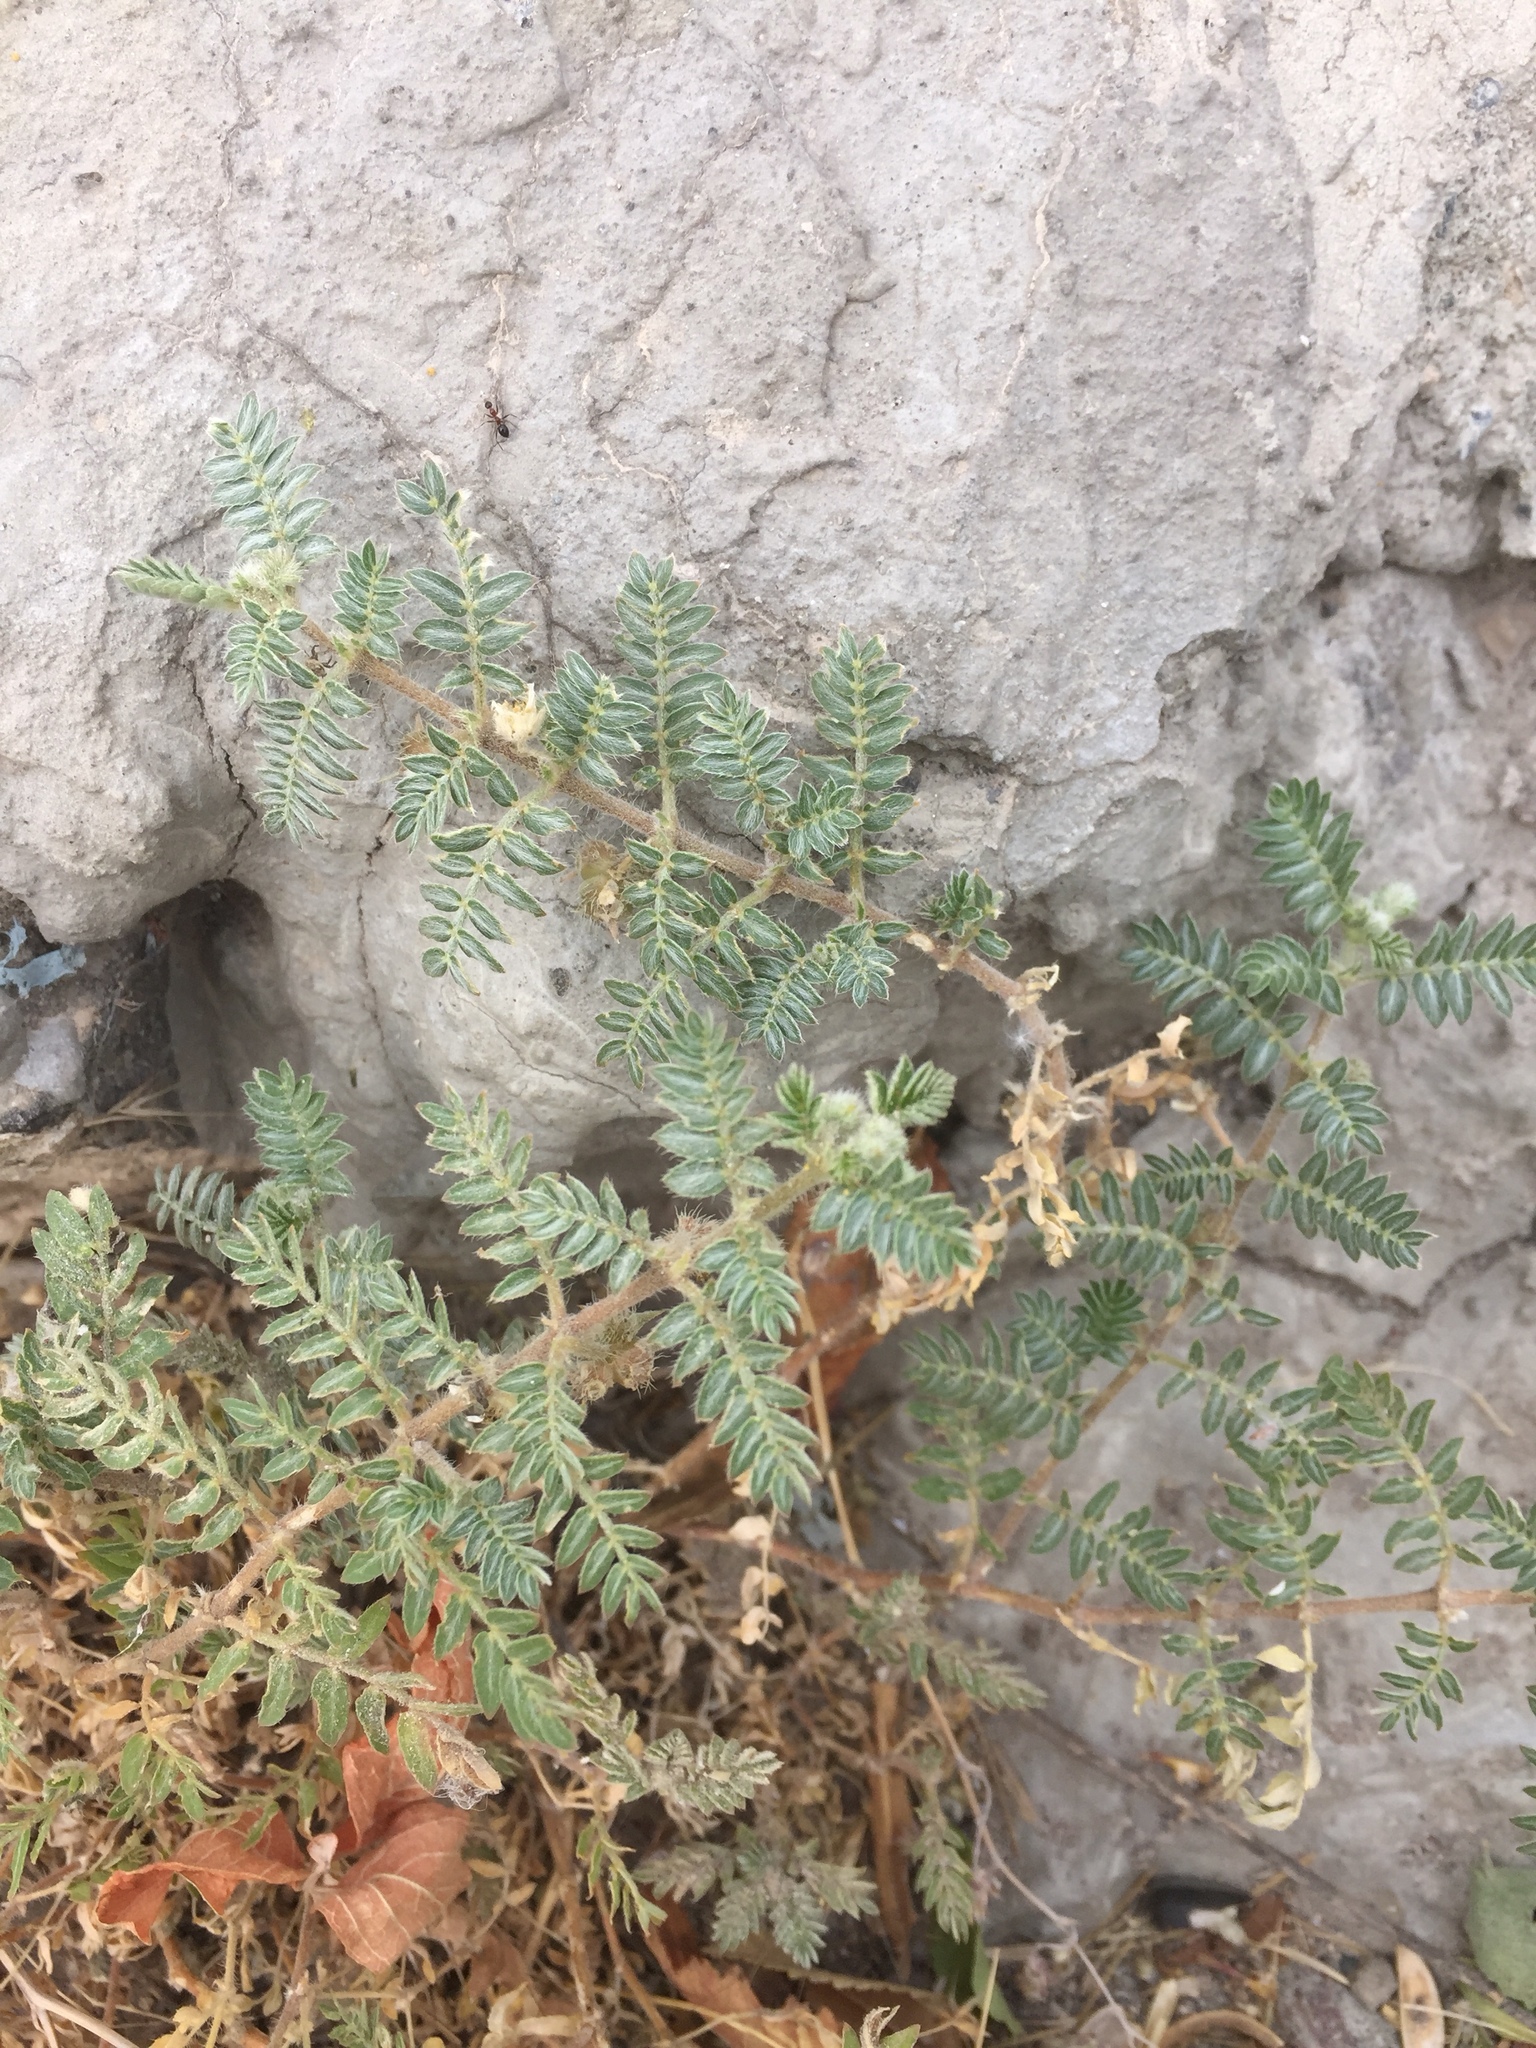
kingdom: Plantae
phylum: Tracheophyta
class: Magnoliopsida
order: Zygophyllales
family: Zygophyllaceae
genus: Tribulus
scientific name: Tribulus terrestris
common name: Puncturevine
